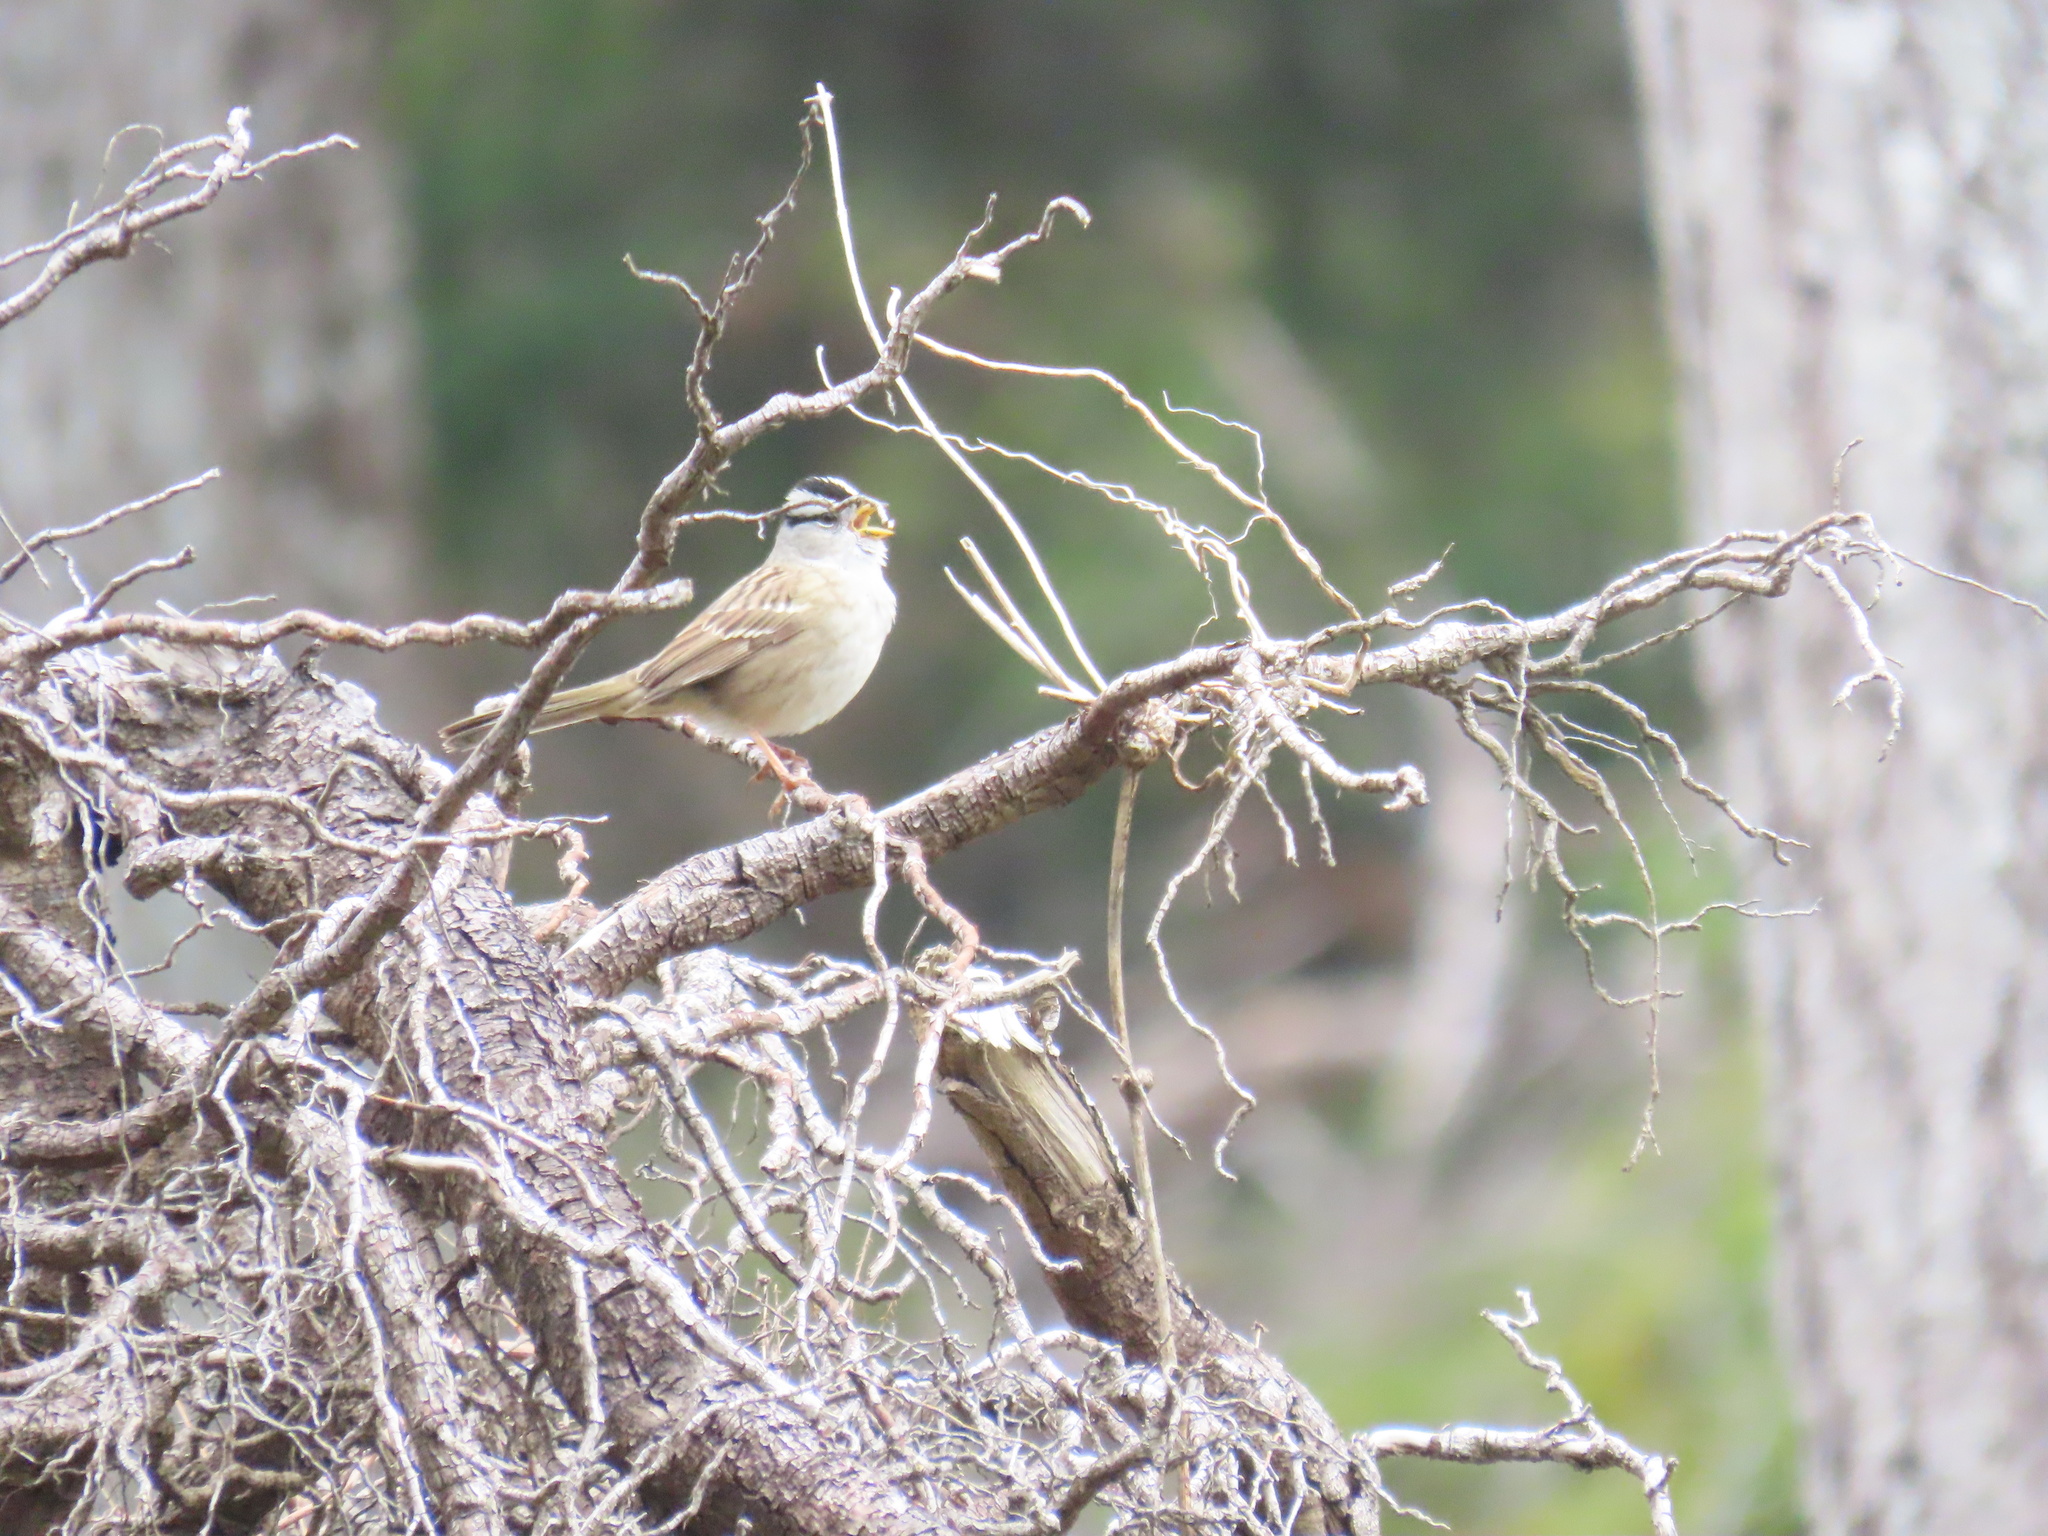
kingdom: Animalia
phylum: Chordata
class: Aves
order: Passeriformes
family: Passerellidae
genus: Zonotrichia
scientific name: Zonotrichia leucophrys
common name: White-crowned sparrow
